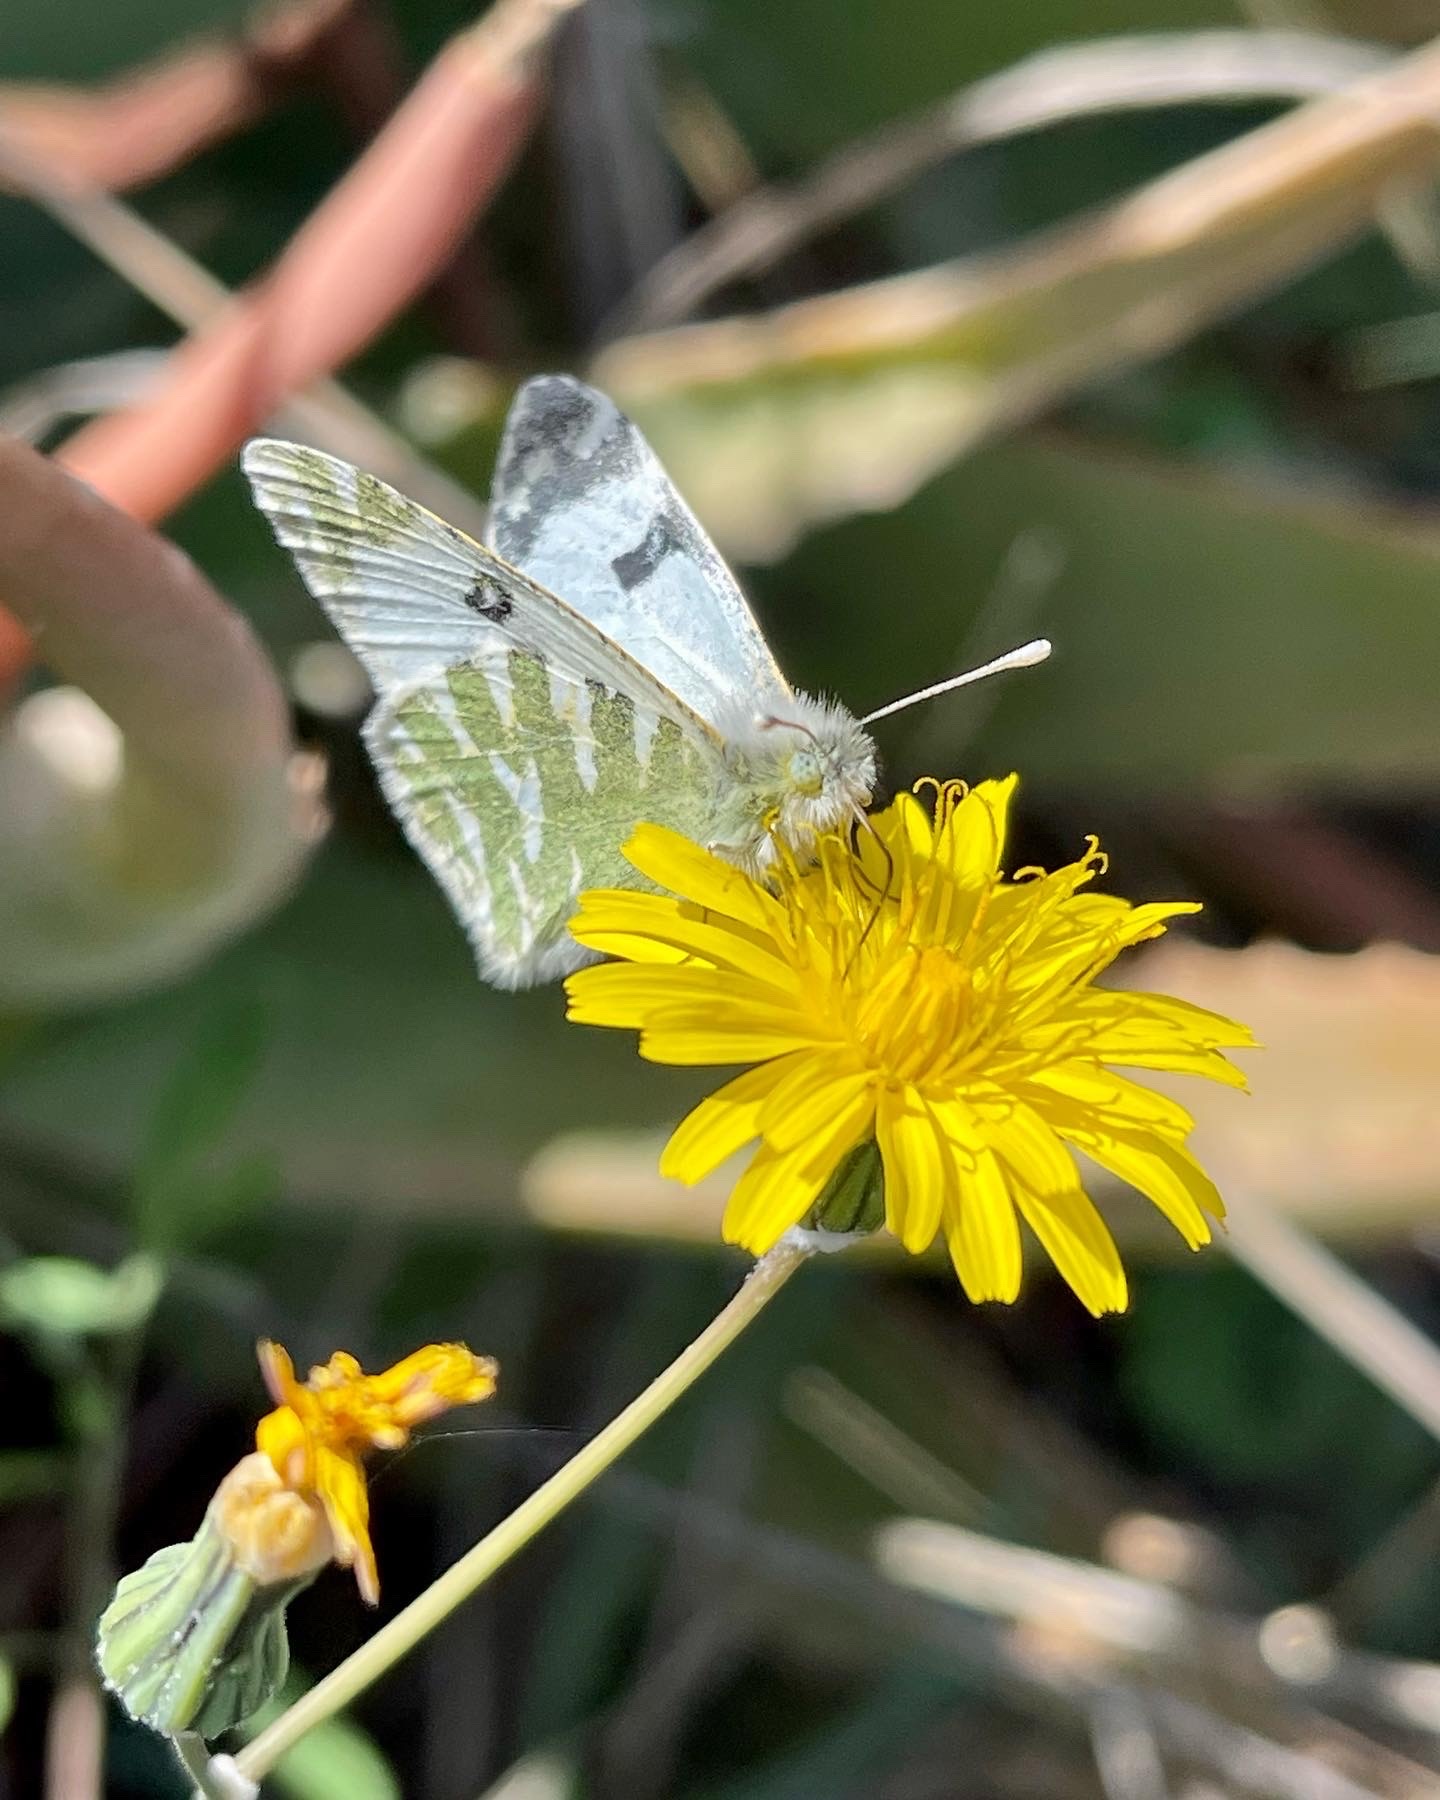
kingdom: Animalia
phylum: Arthropoda
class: Insecta
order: Lepidoptera
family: Pieridae
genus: Euchloe
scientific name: Euchloe grancanariensis
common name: Gran canaria green-striped white
